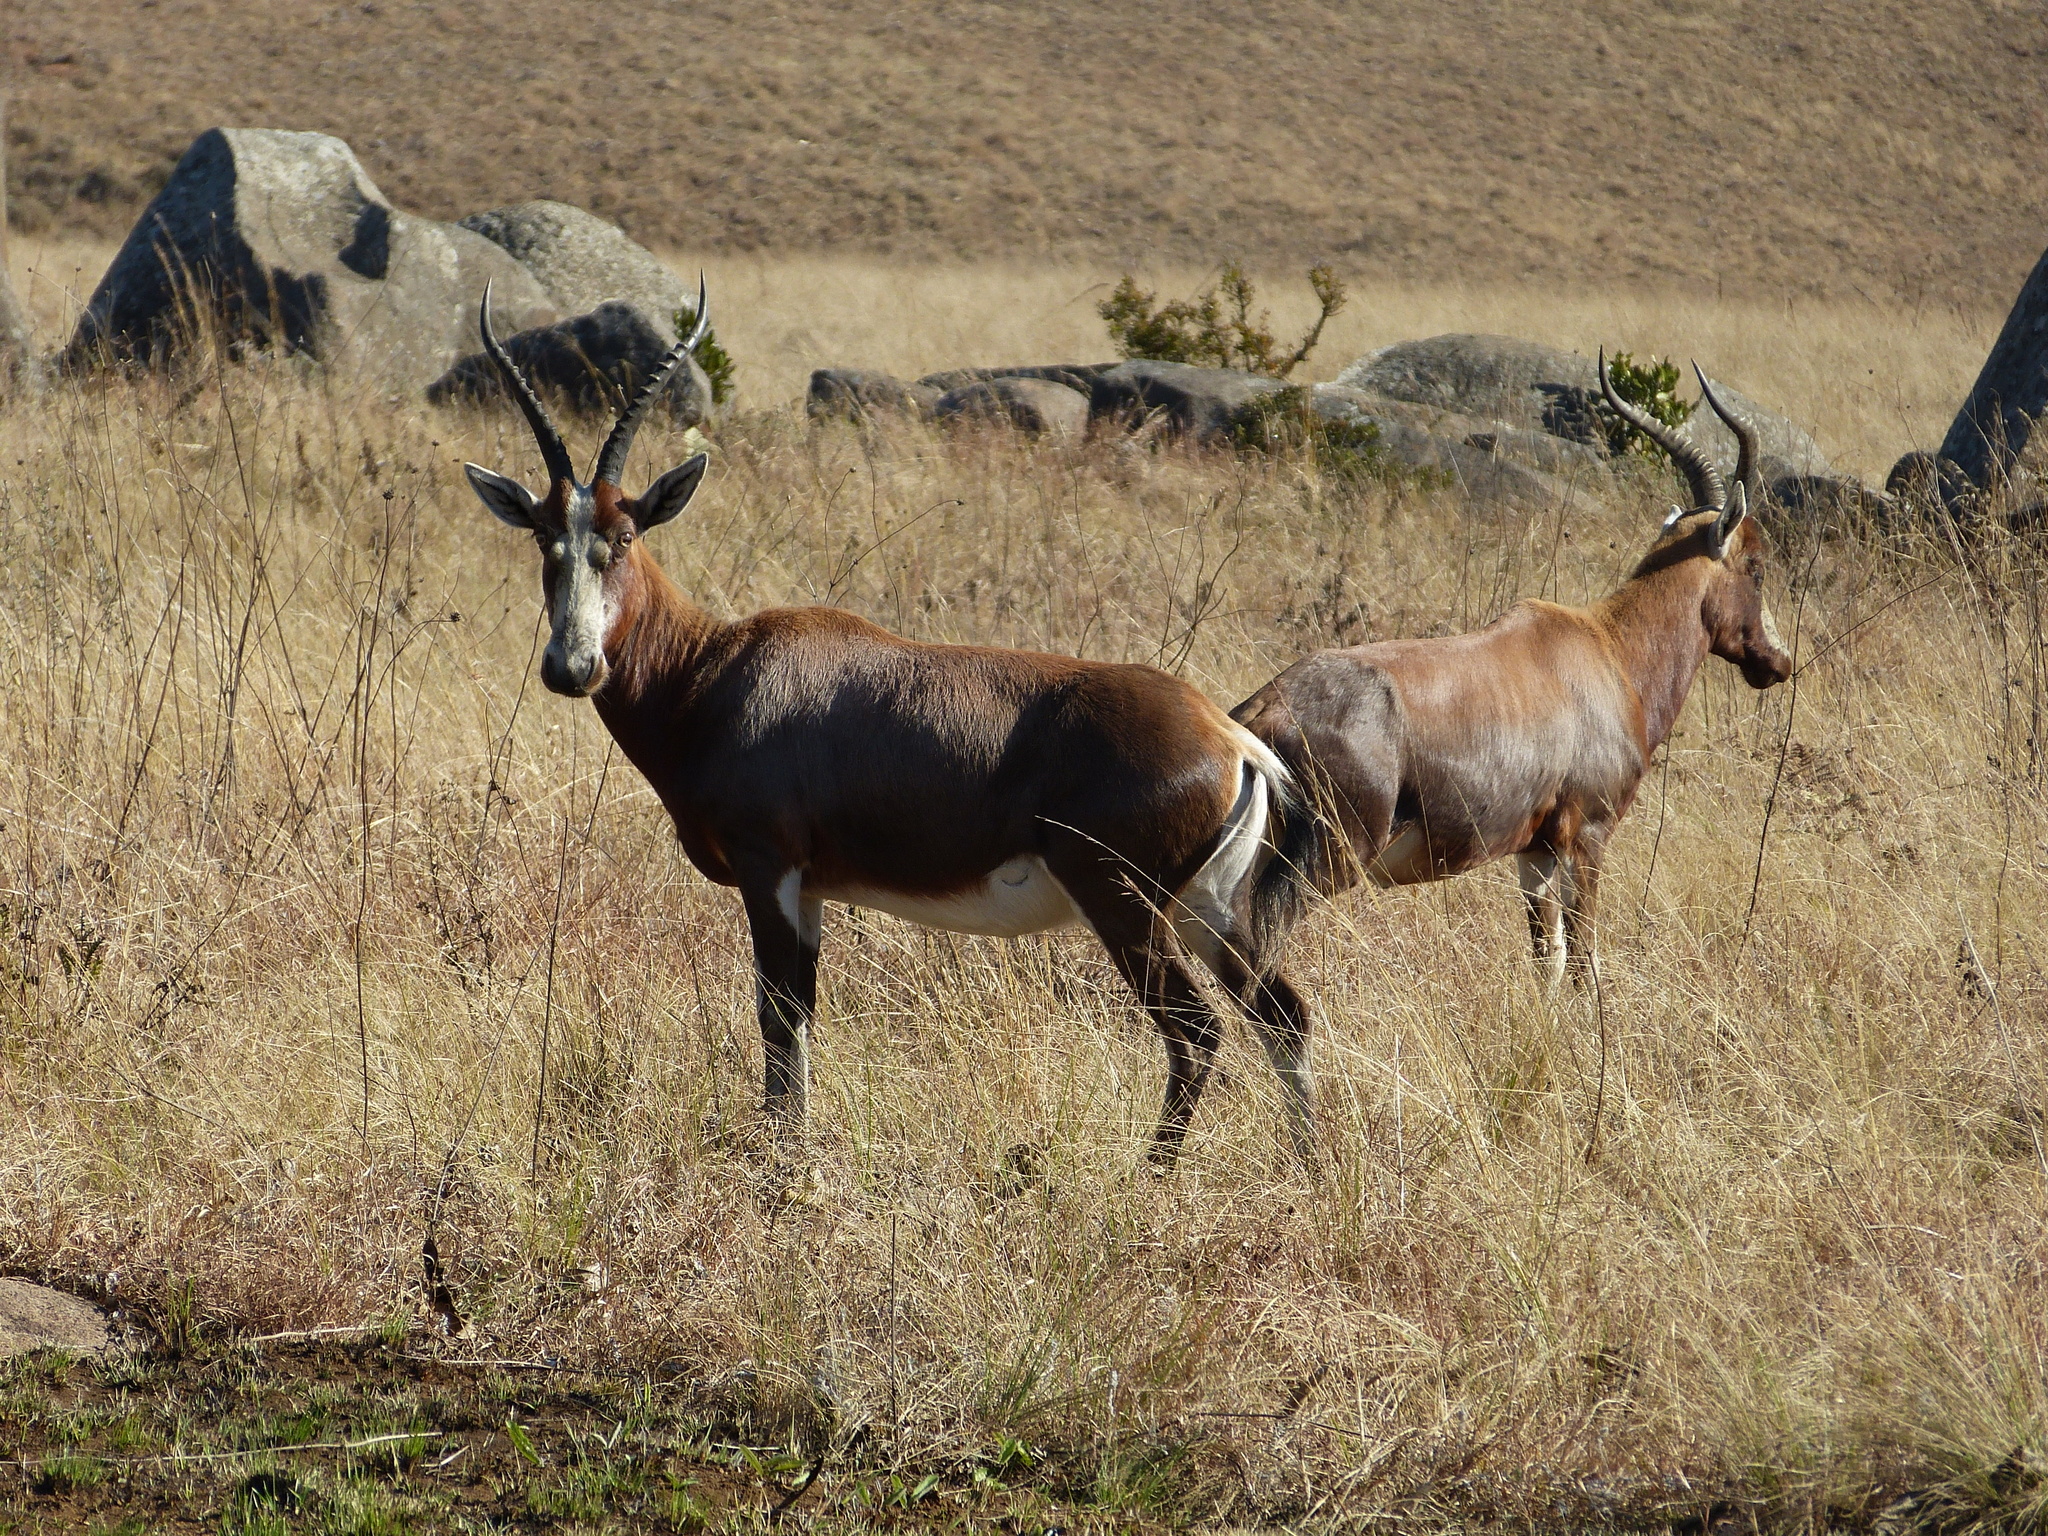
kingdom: Animalia
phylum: Chordata
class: Mammalia
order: Artiodactyla
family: Bovidae
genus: Damaliscus
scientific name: Damaliscus pygargus
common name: Bontebok
